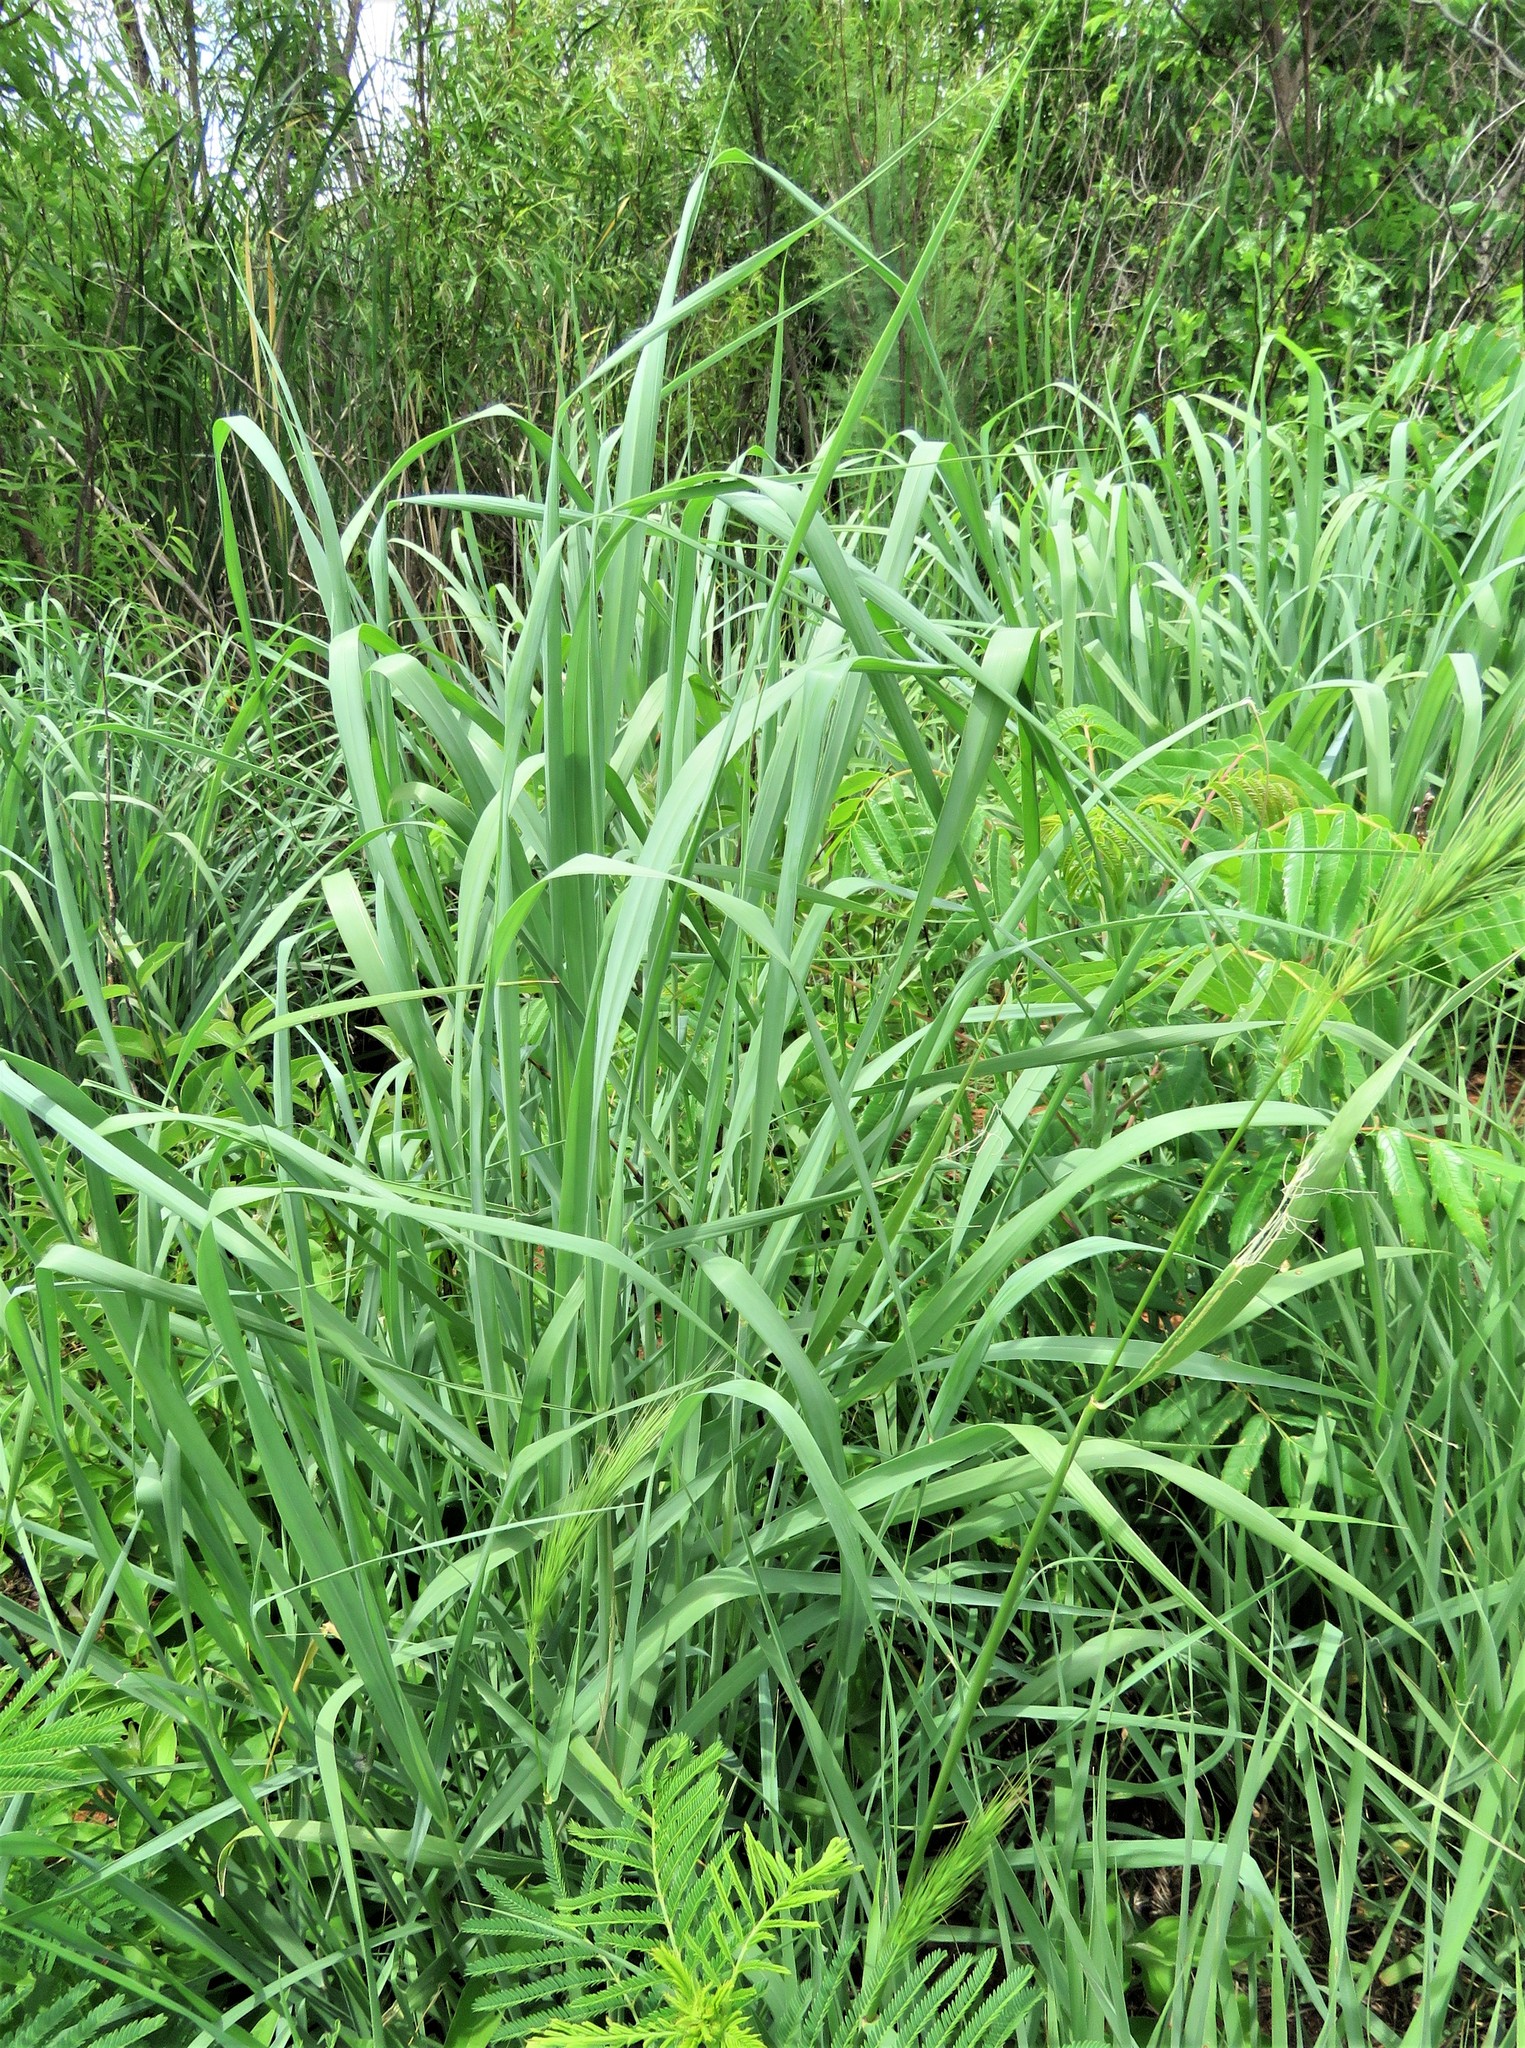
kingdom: Plantae
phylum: Tracheophyta
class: Liliopsida
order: Poales
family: Poaceae
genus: Elymus
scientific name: Elymus virginicus
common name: Common eastern wildrye
